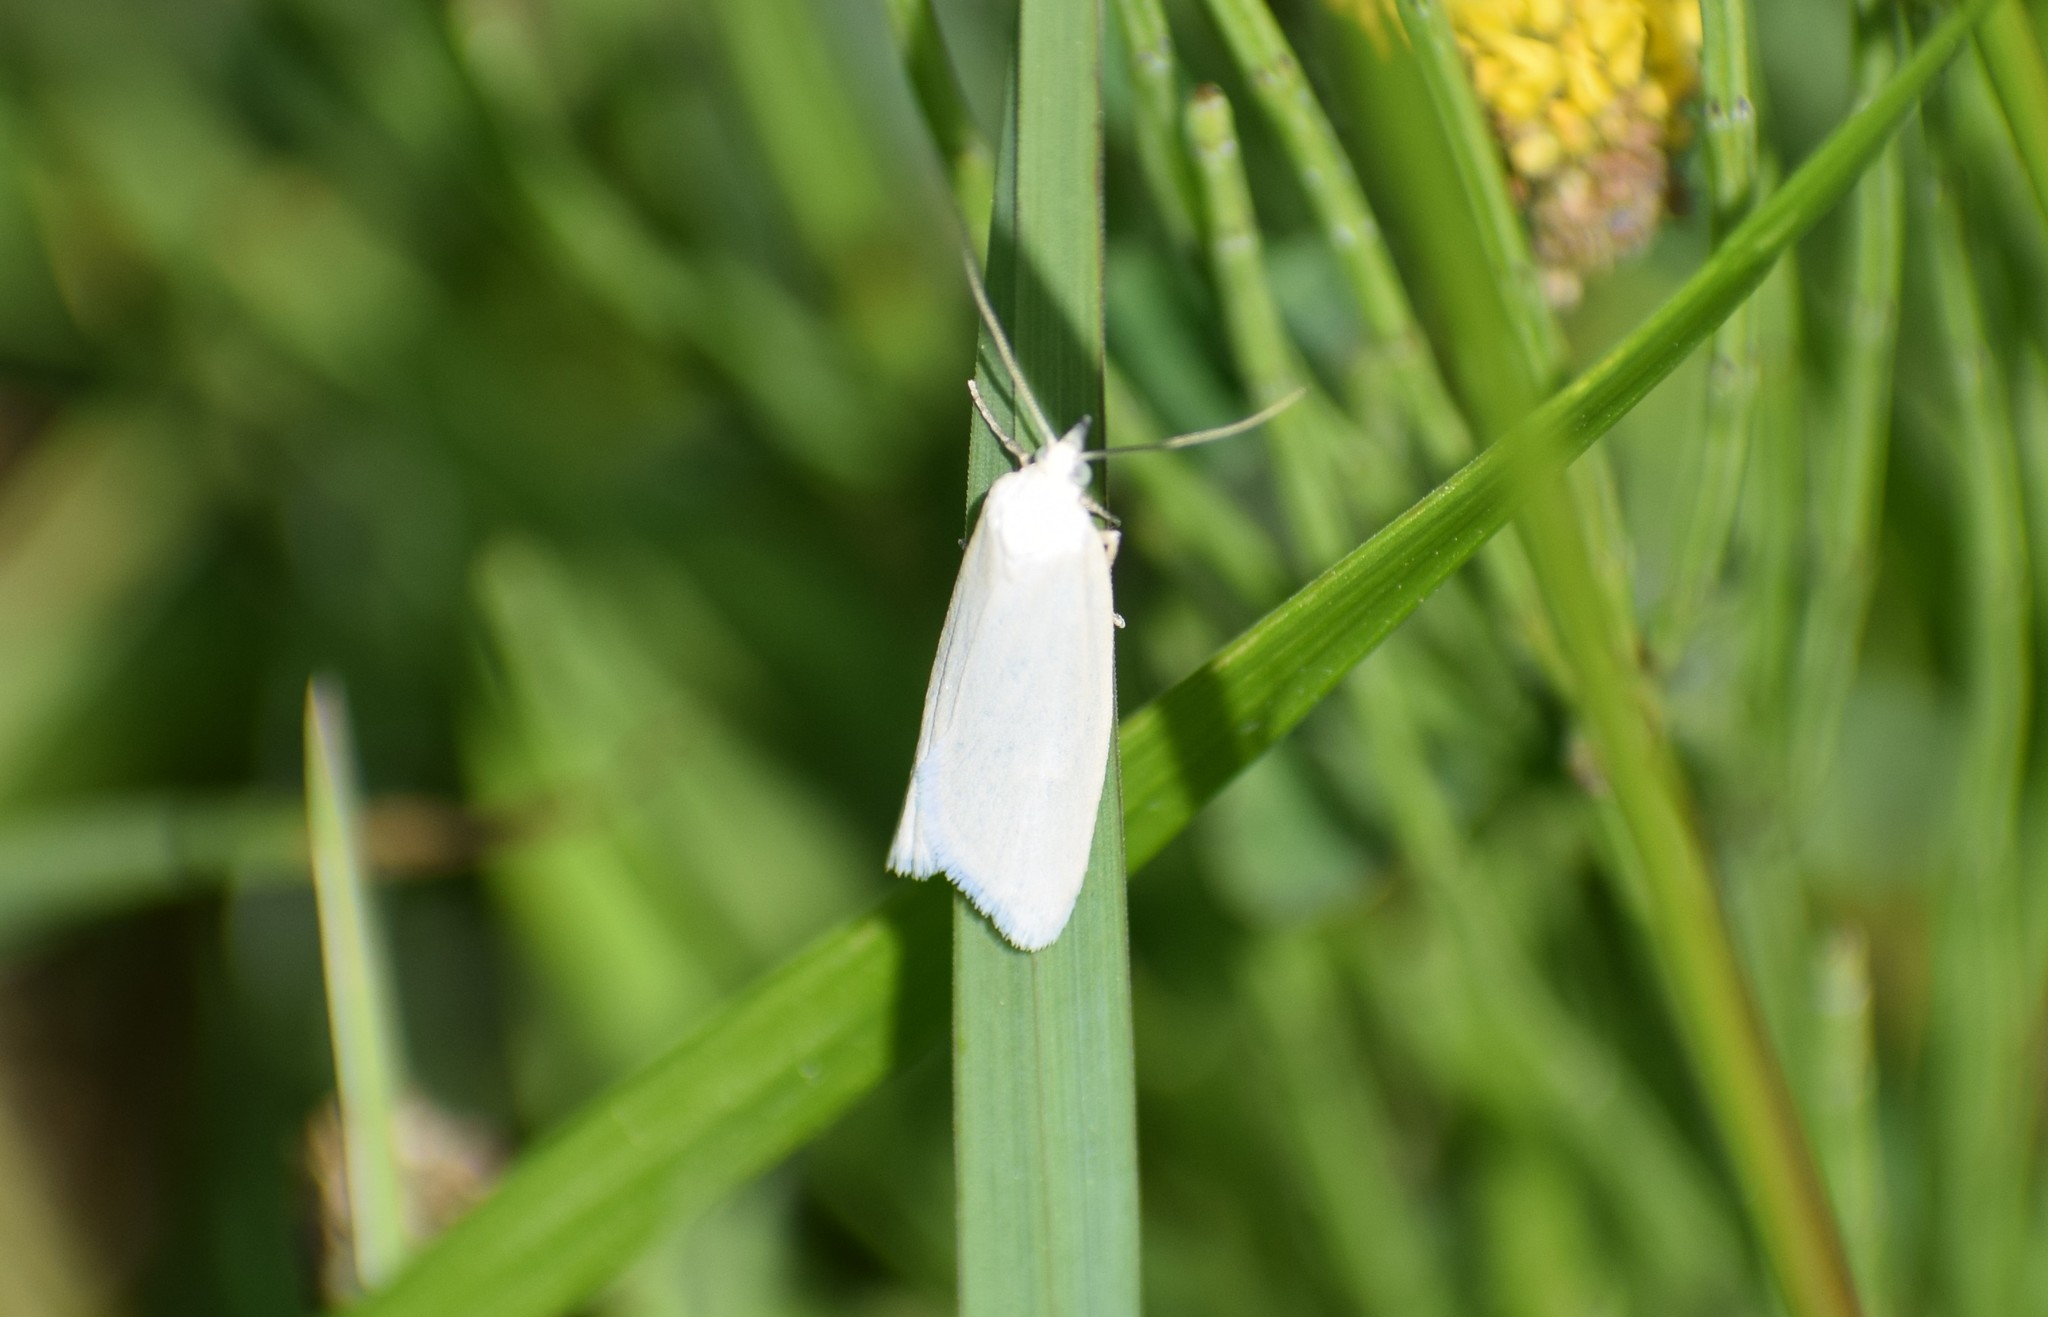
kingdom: Animalia
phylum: Arthropoda
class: Insecta
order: Lepidoptera
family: Tortricidae
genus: Eana
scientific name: Eana argentana
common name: Silver shade
